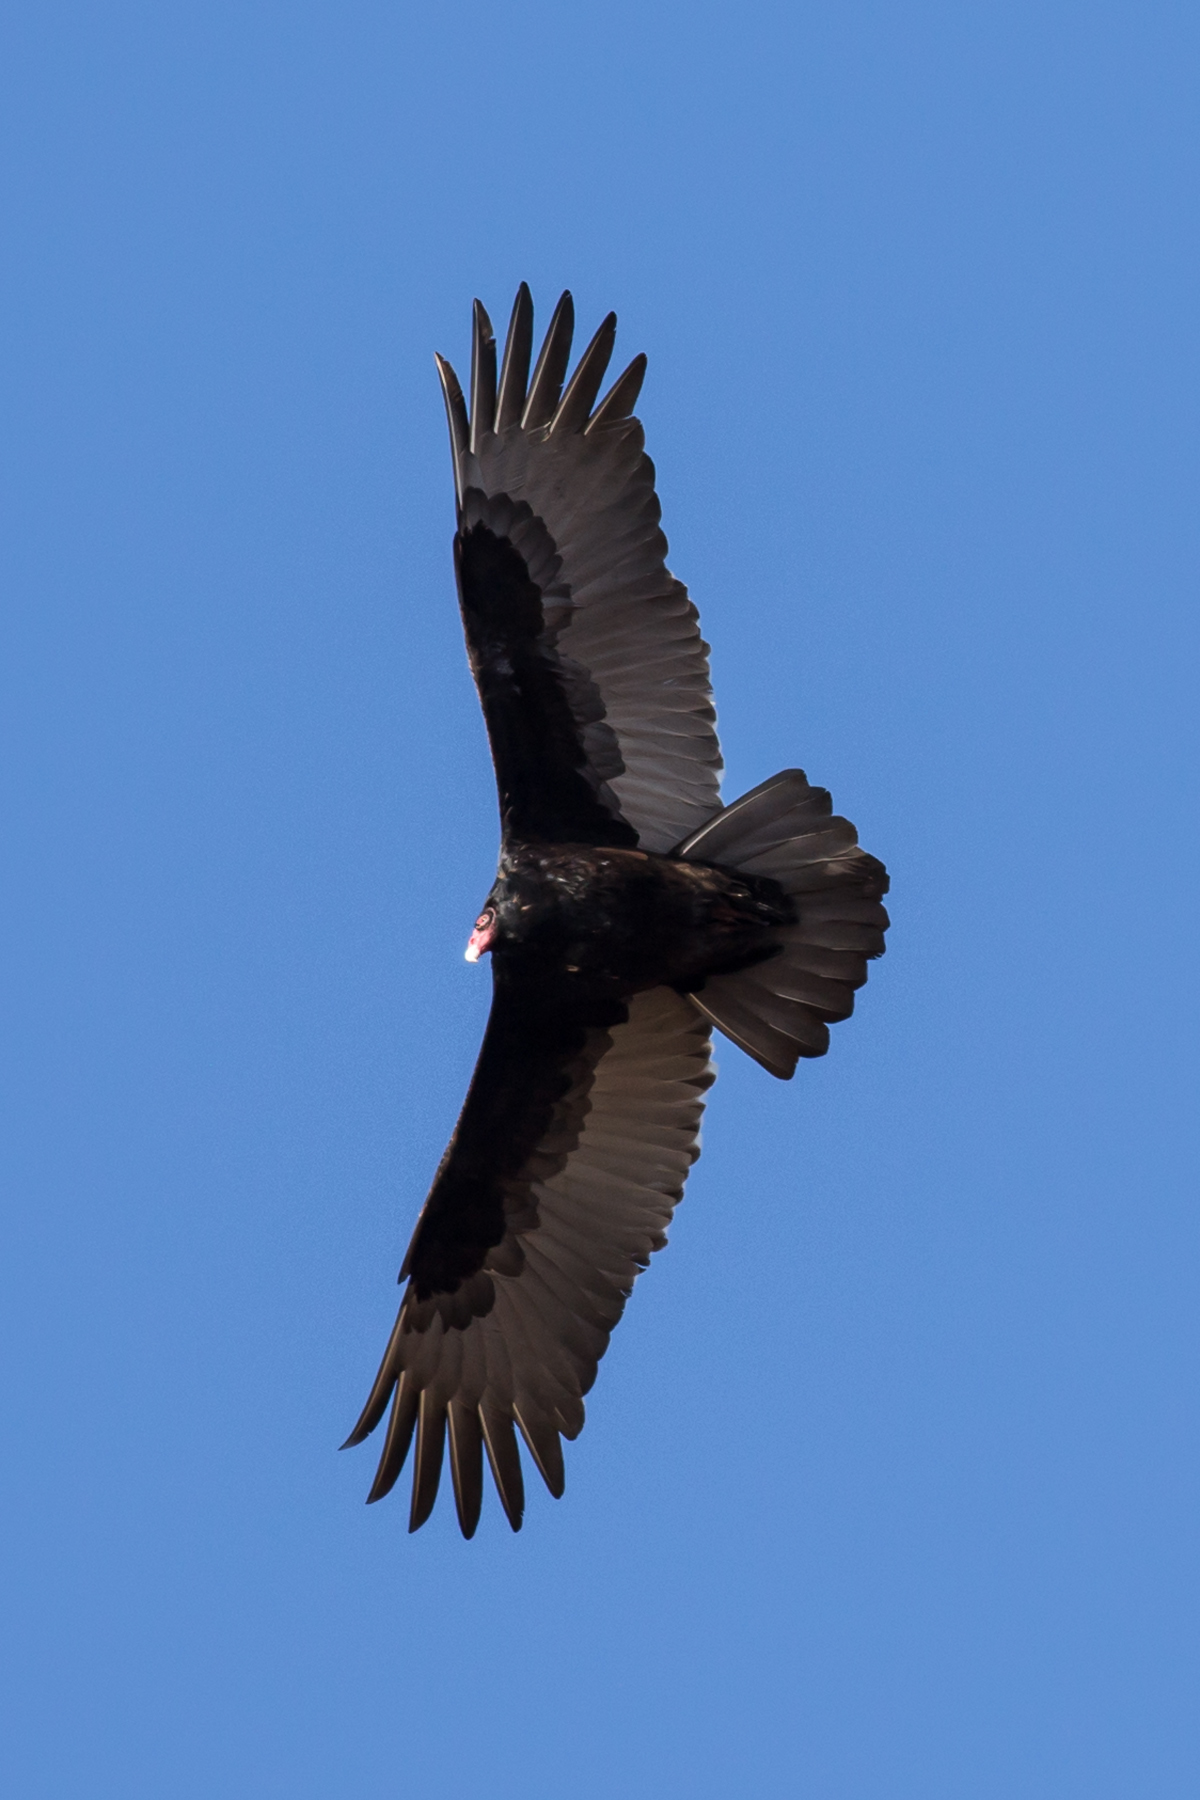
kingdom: Animalia
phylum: Chordata
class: Aves
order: Accipitriformes
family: Cathartidae
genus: Cathartes
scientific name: Cathartes aura
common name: Turkey vulture
